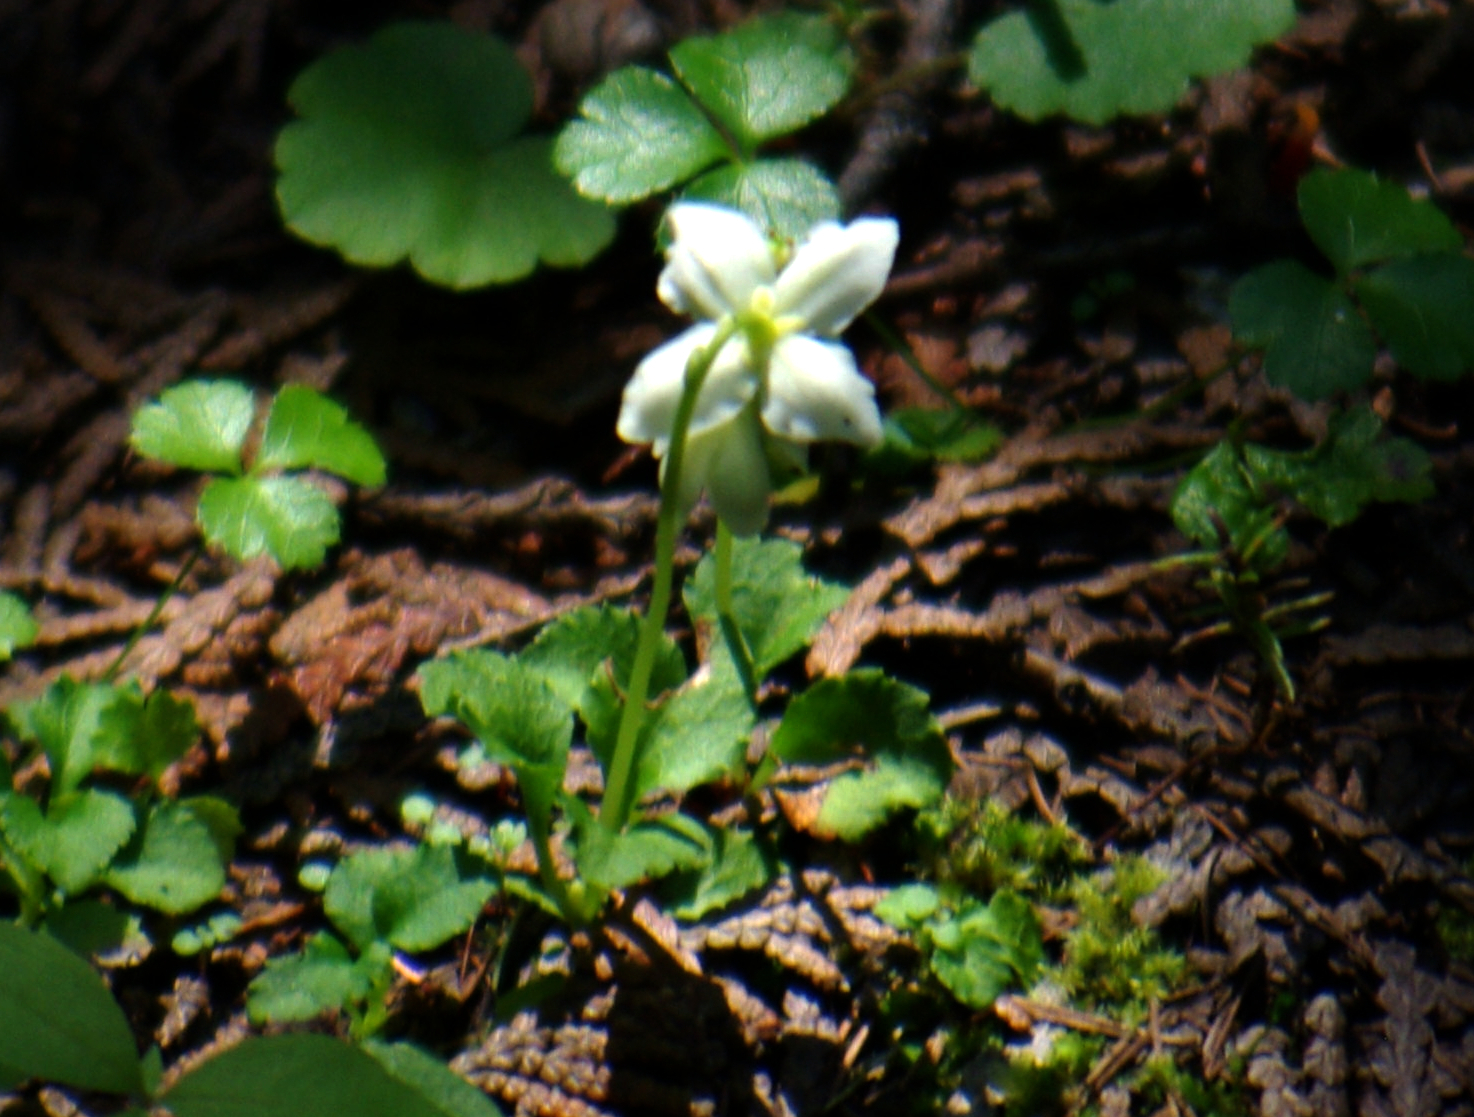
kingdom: Plantae
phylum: Tracheophyta
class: Magnoliopsida
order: Ericales
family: Ericaceae
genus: Moneses
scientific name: Moneses uniflora
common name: One-flowered wintergreen
